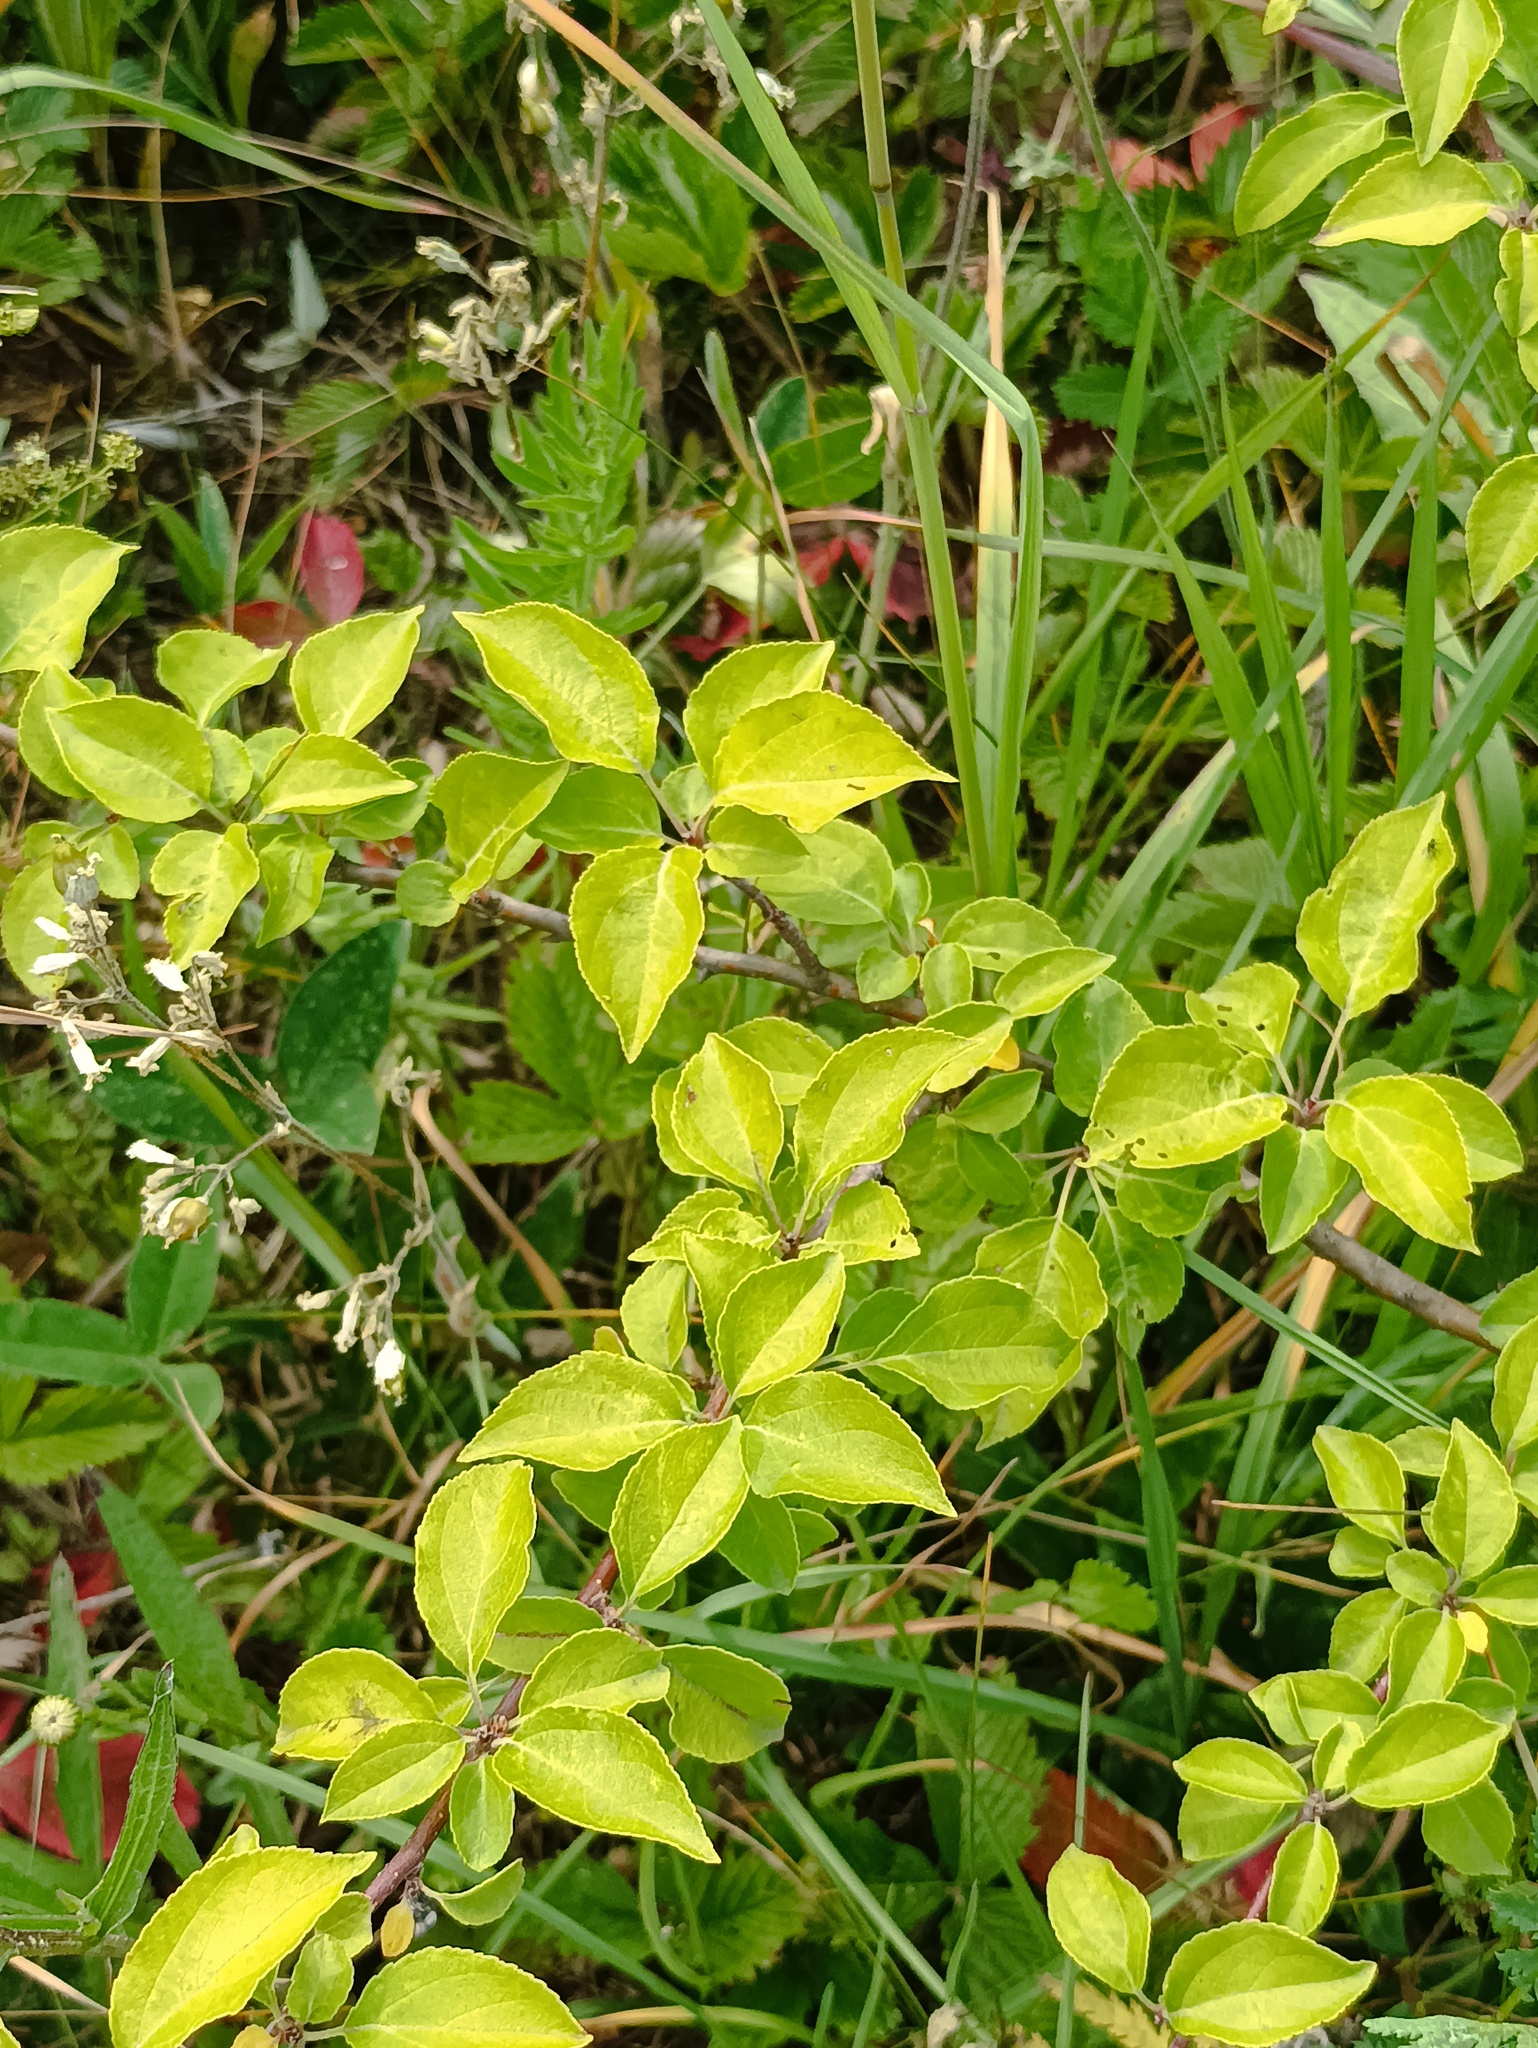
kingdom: Plantae
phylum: Tracheophyta
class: Magnoliopsida
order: Rosales
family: Rosaceae
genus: Malus
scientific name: Malus domestica
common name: Apple
